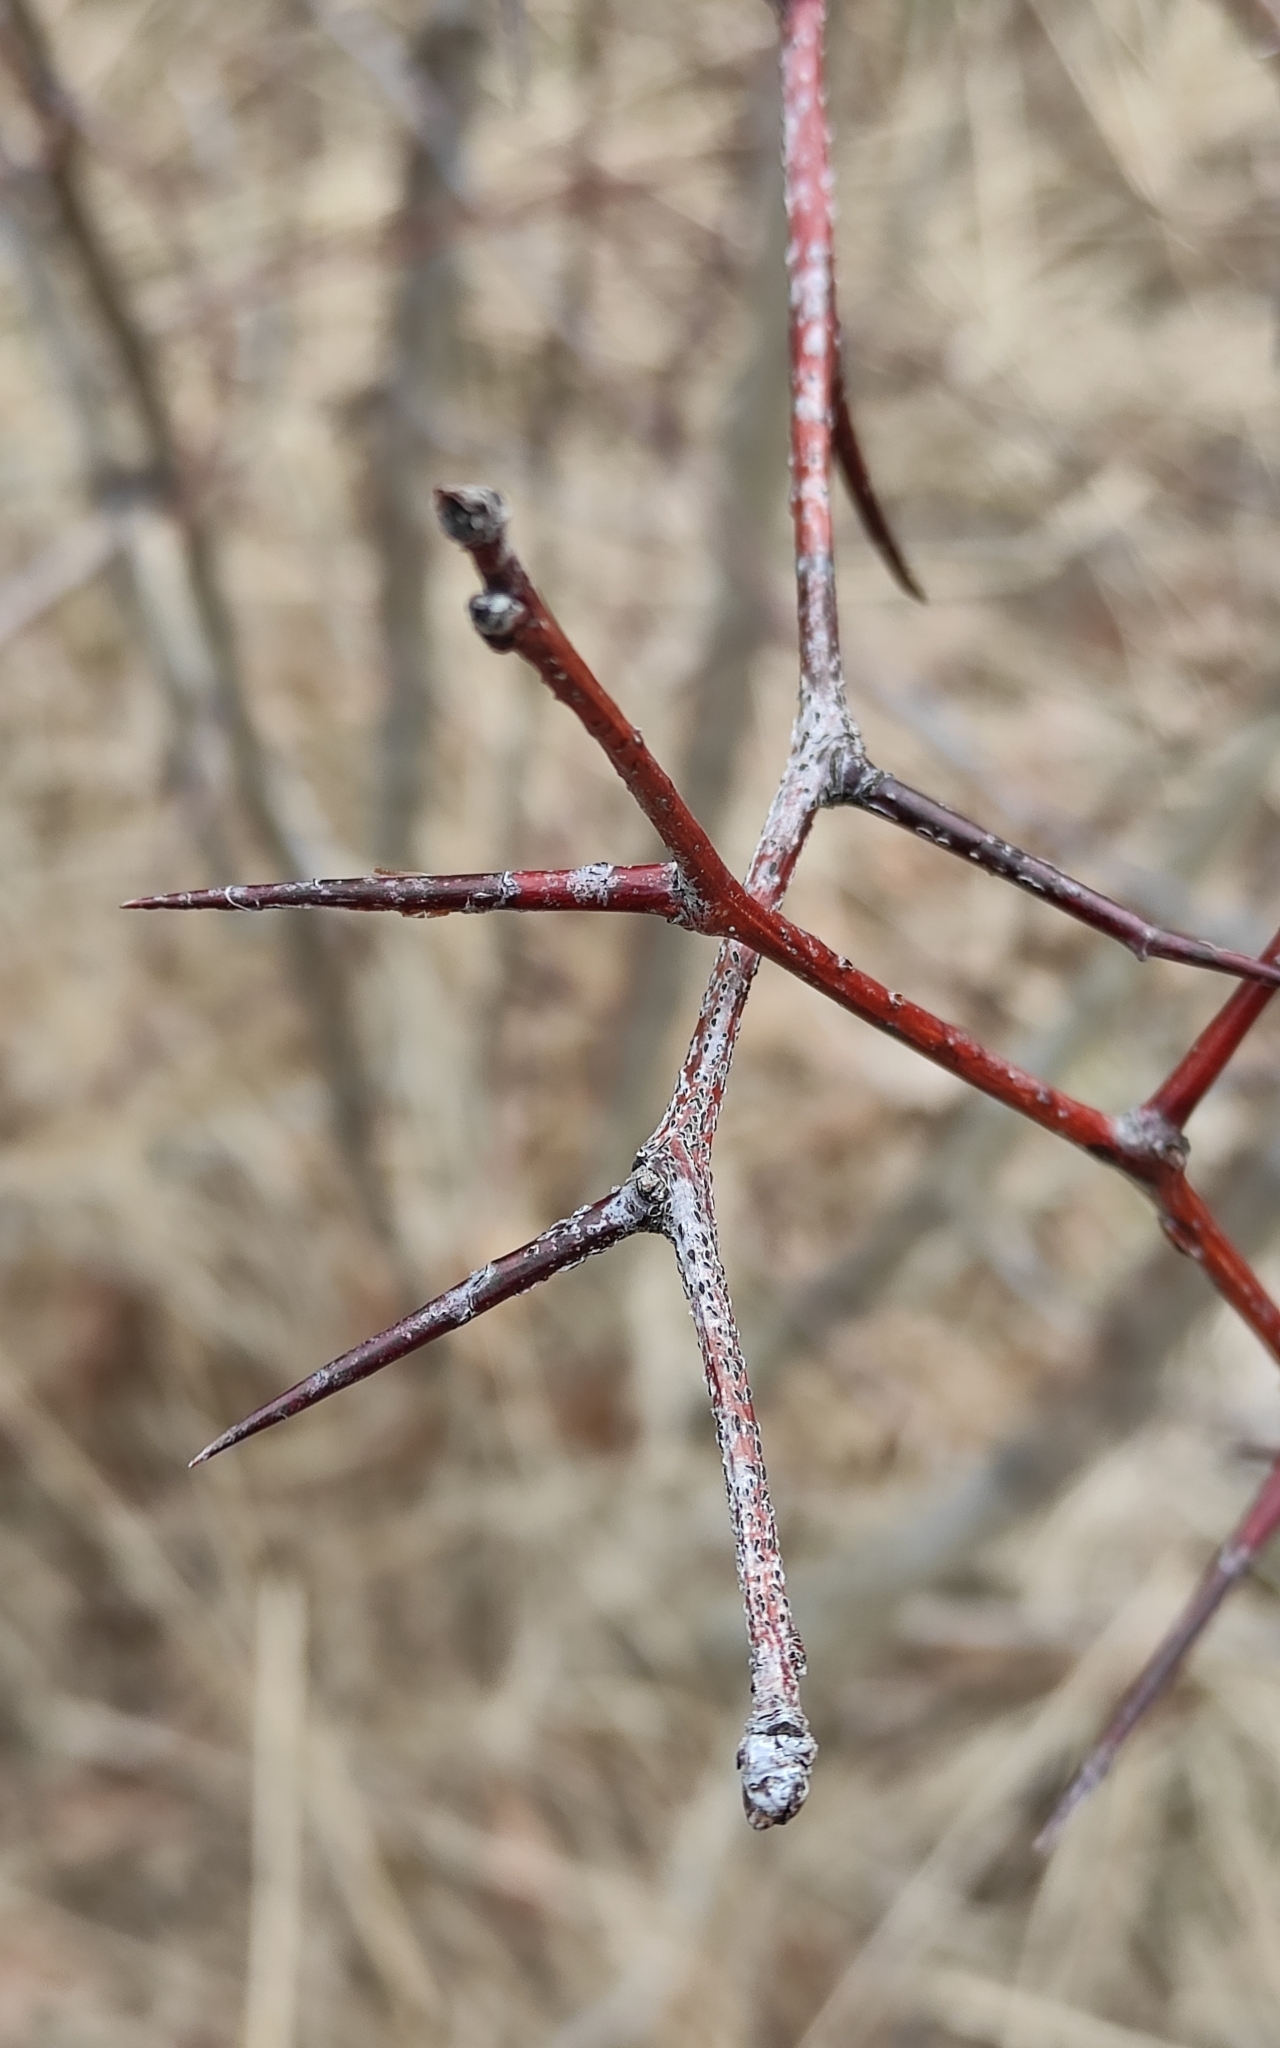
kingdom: Plantae
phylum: Tracheophyta
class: Magnoliopsida
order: Rosales
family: Rosaceae
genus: Crataegus
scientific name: Crataegus sanguinea
